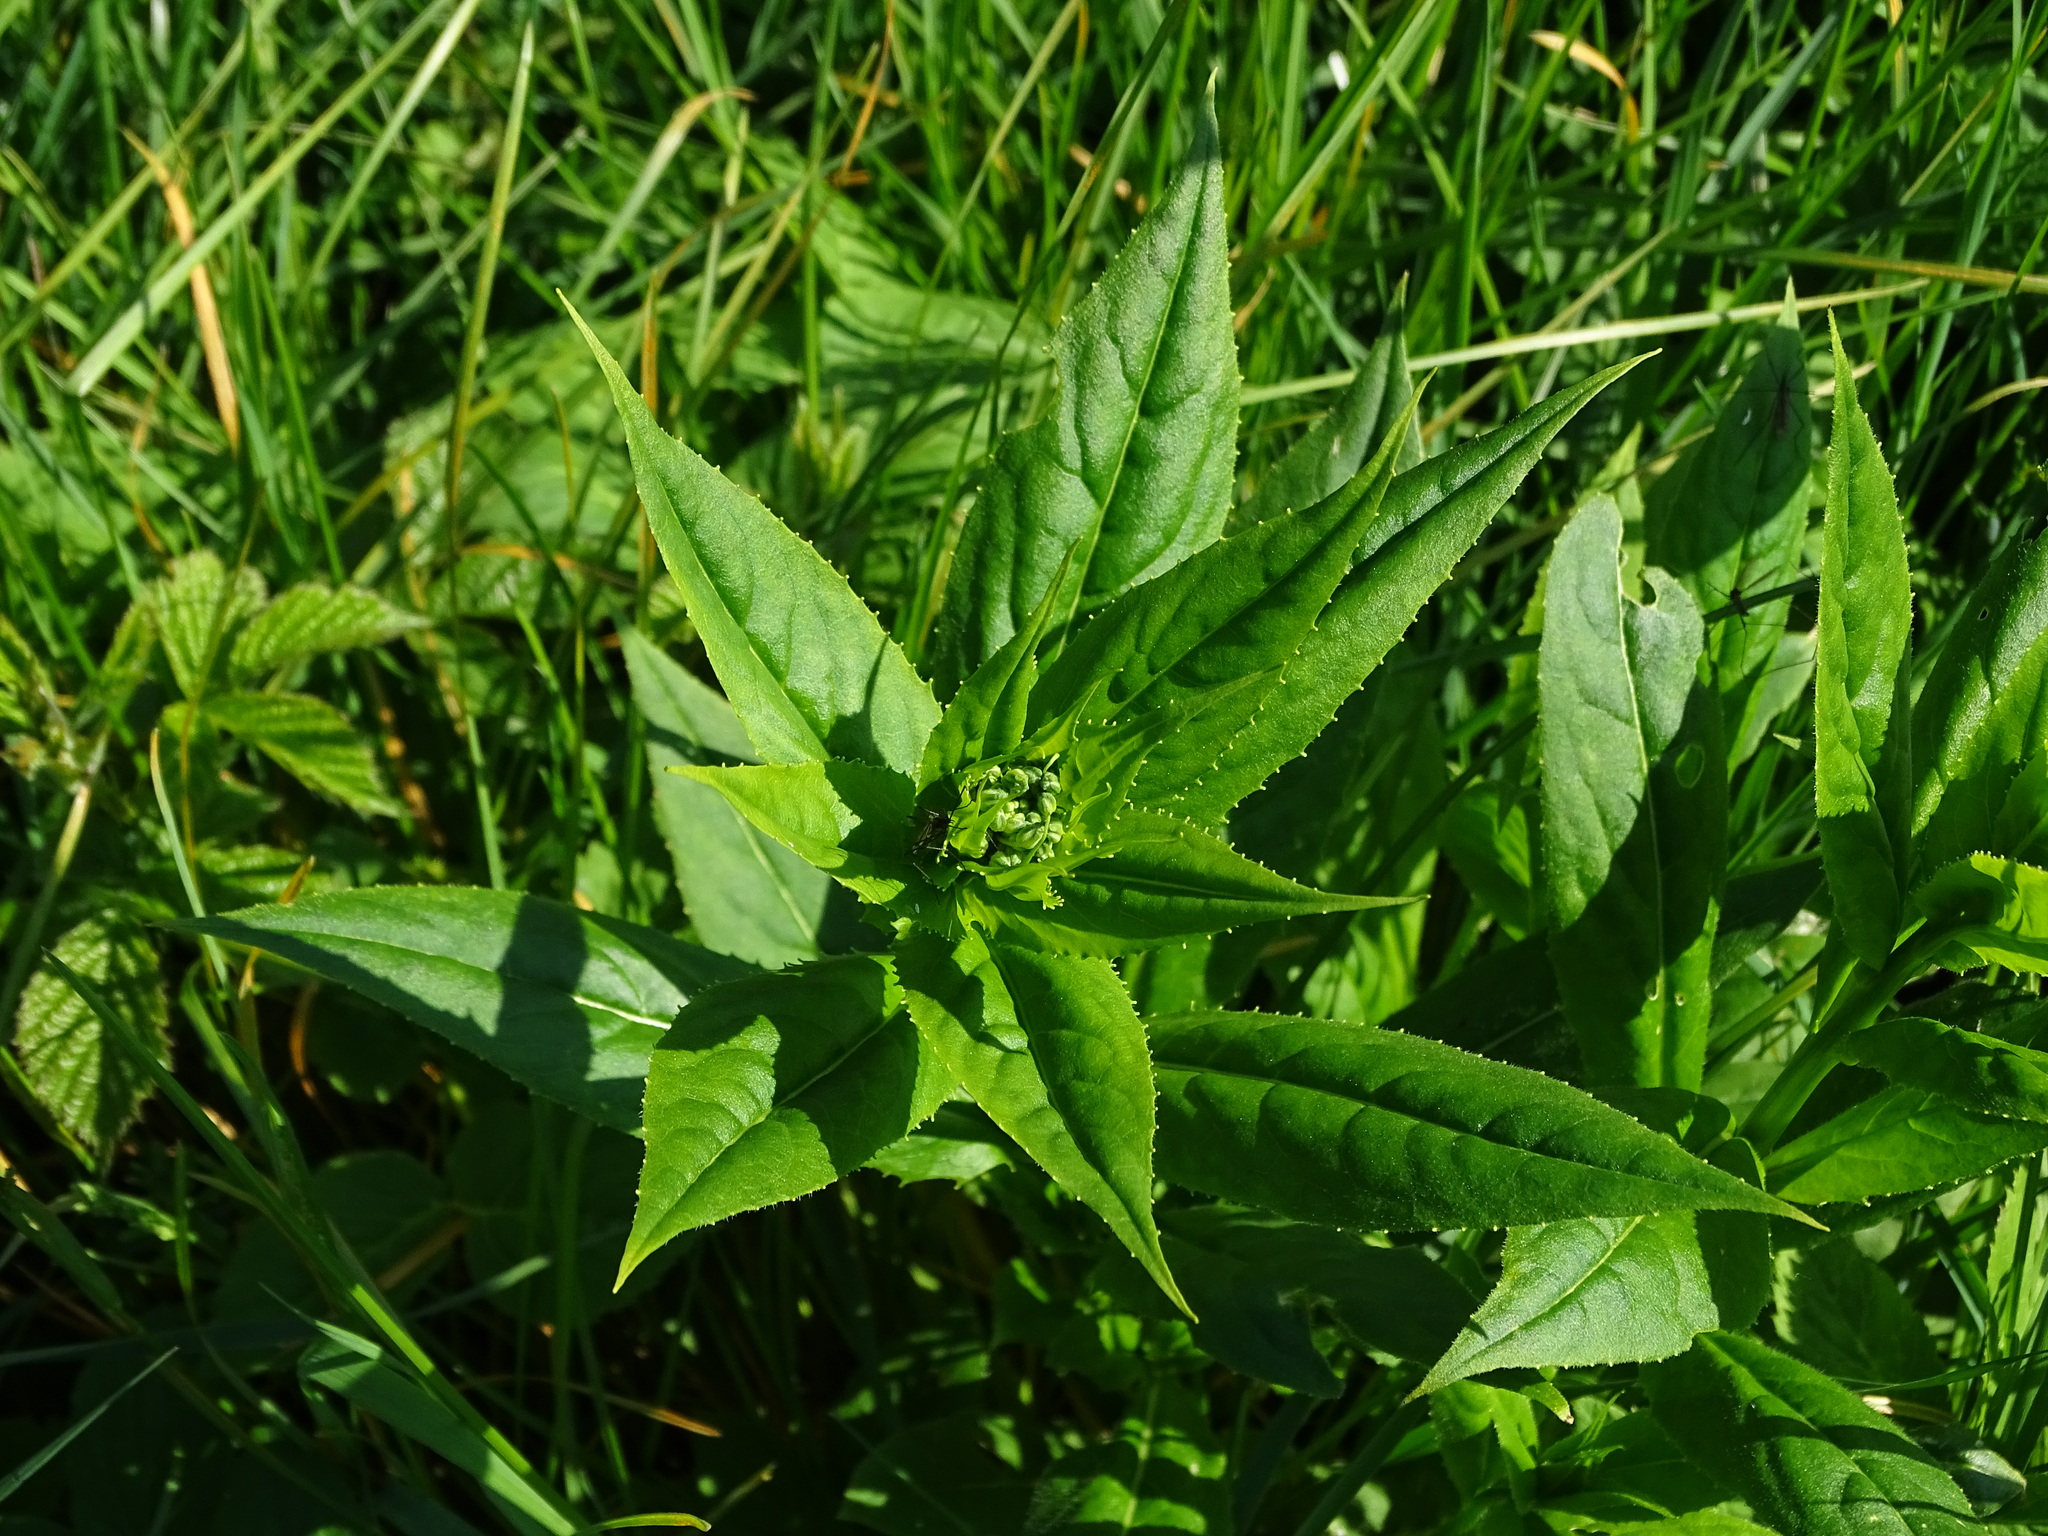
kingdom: Plantae
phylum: Tracheophyta
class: Magnoliopsida
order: Brassicales
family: Brassicaceae
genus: Hesperis
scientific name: Hesperis matronalis
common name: Dame's-violet
